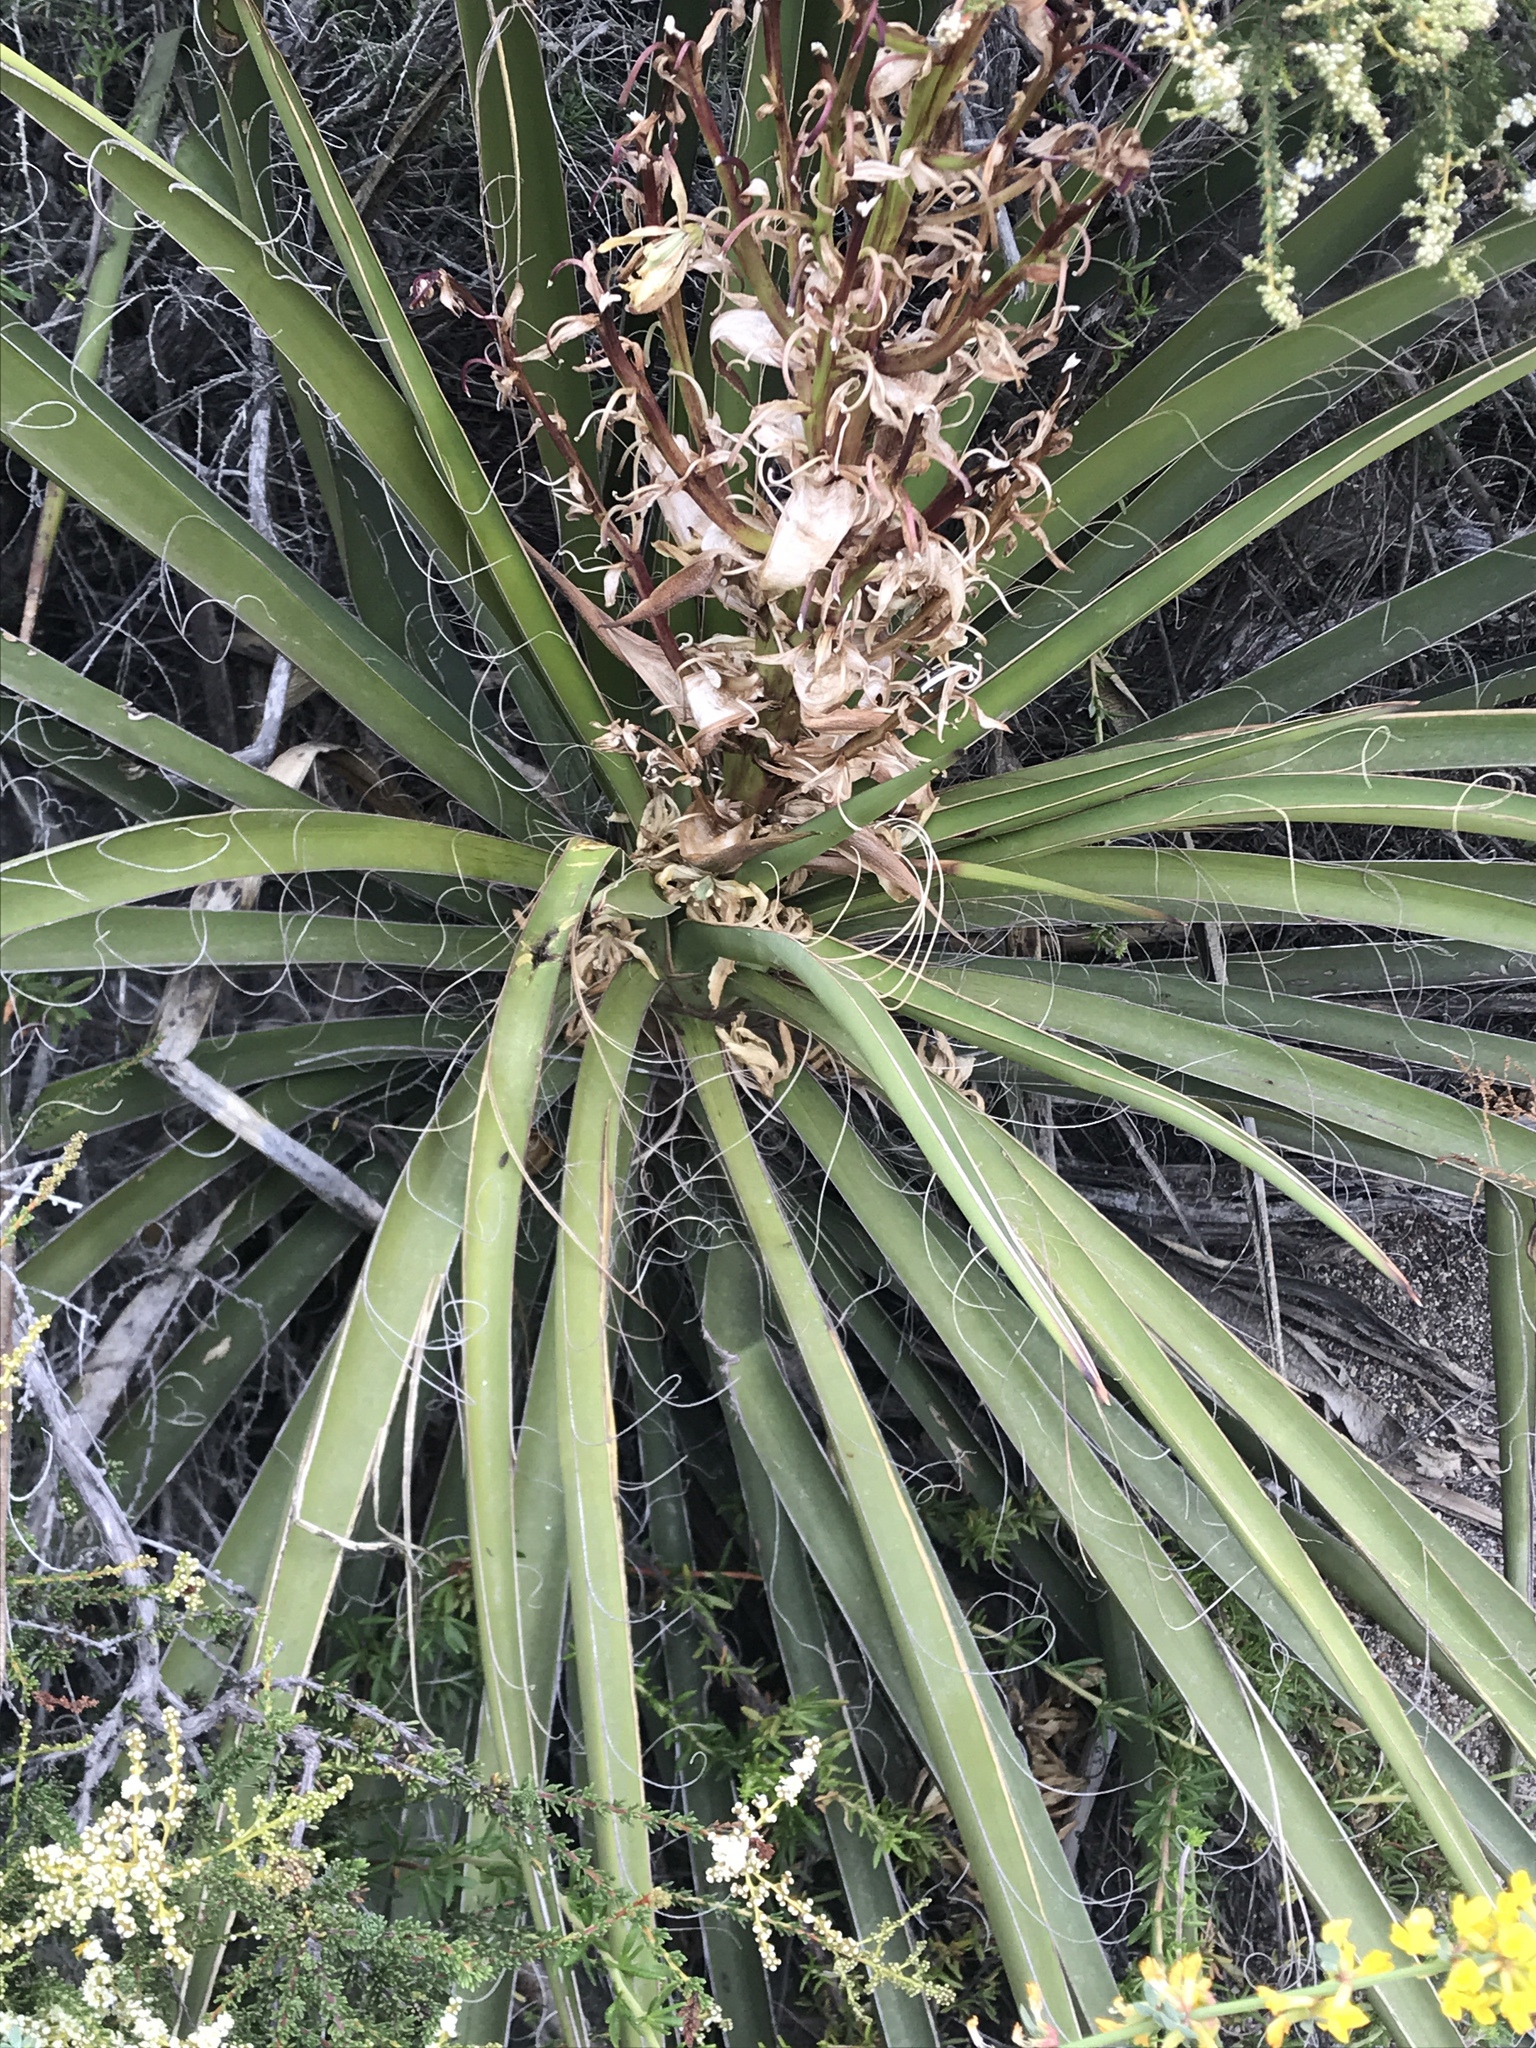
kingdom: Plantae
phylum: Tracheophyta
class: Liliopsida
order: Asparagales
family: Asparagaceae
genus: Yucca
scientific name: Yucca schidigera
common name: Mojave yucca
